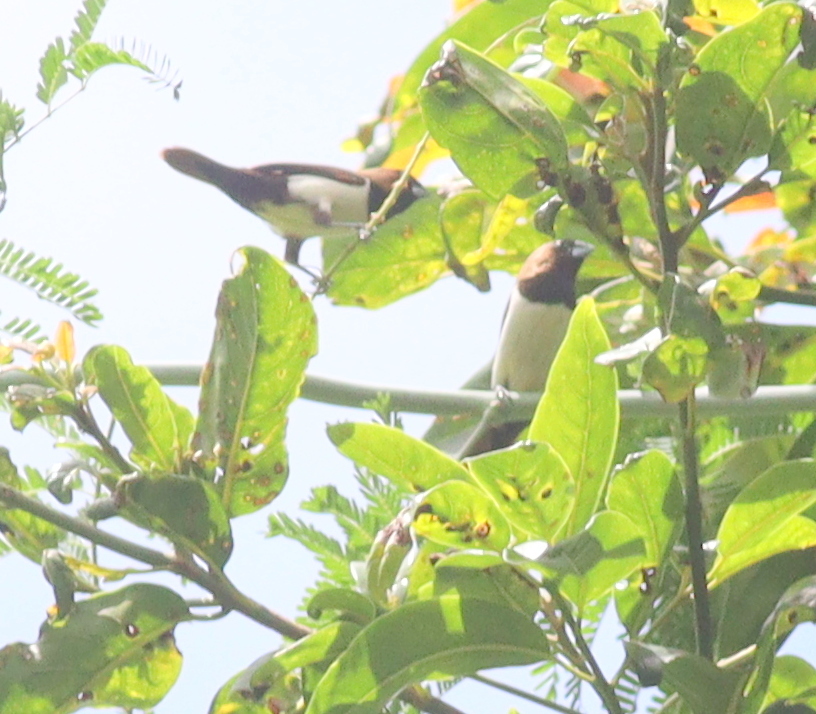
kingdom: Animalia
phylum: Chordata
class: Aves
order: Passeriformes
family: Estrildidae
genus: Lonchura
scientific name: Lonchura leucogastroides
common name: Javan munia
